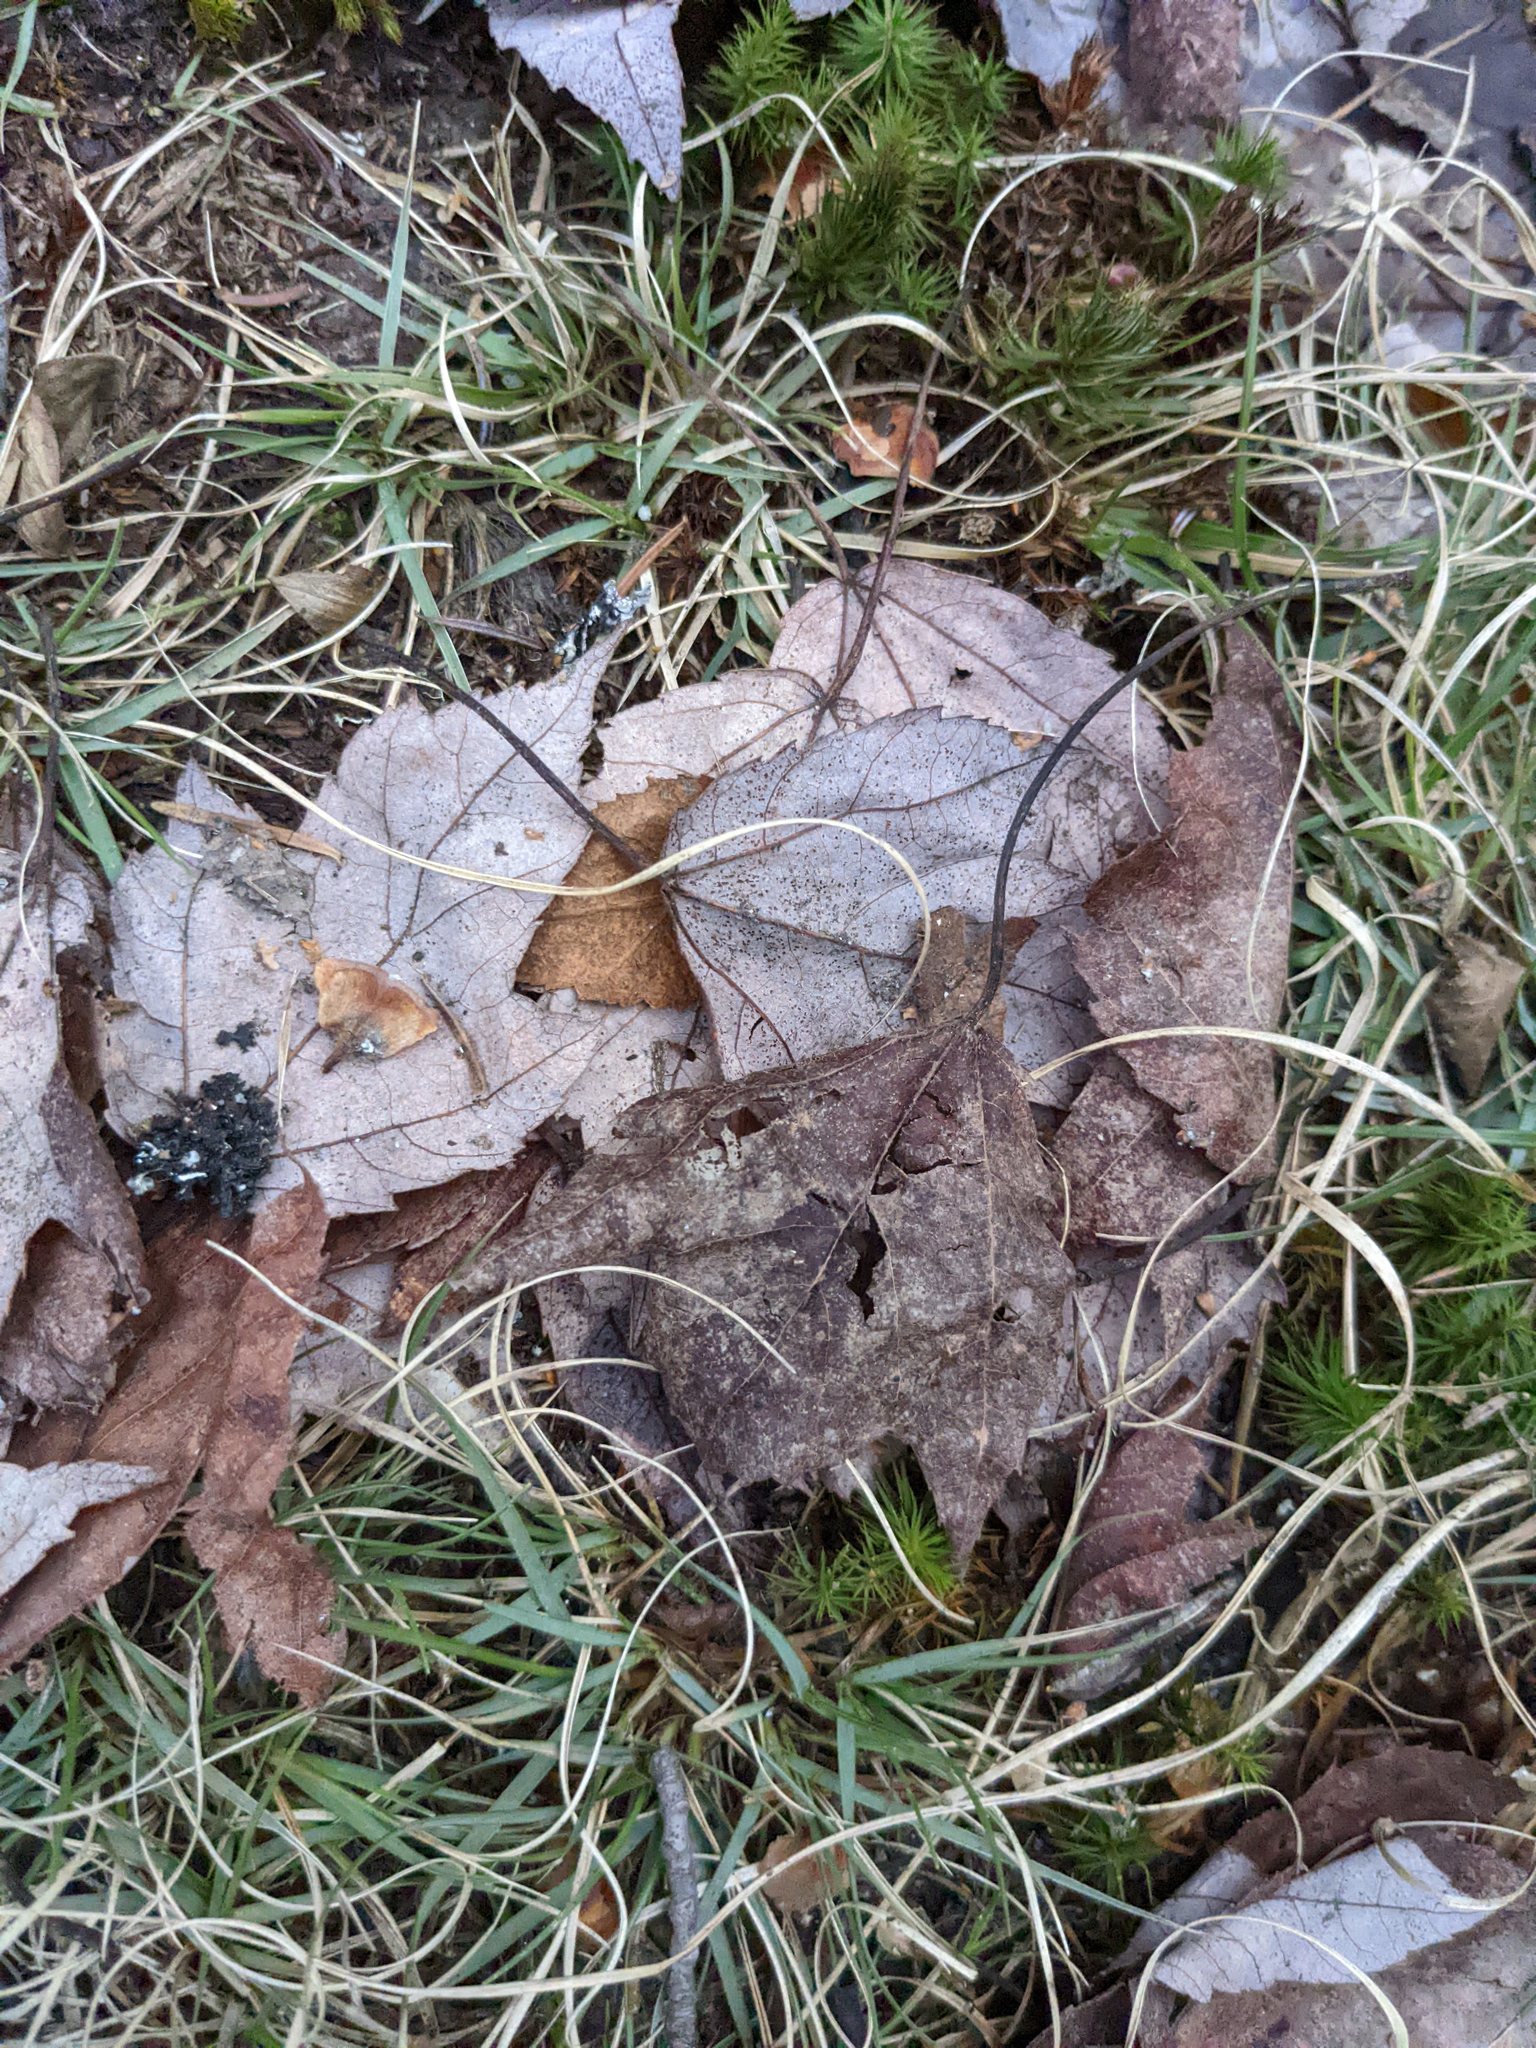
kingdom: Plantae
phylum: Tracheophyta
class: Magnoliopsida
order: Sapindales
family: Sapindaceae
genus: Acer
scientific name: Acer rubrum
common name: Red maple
